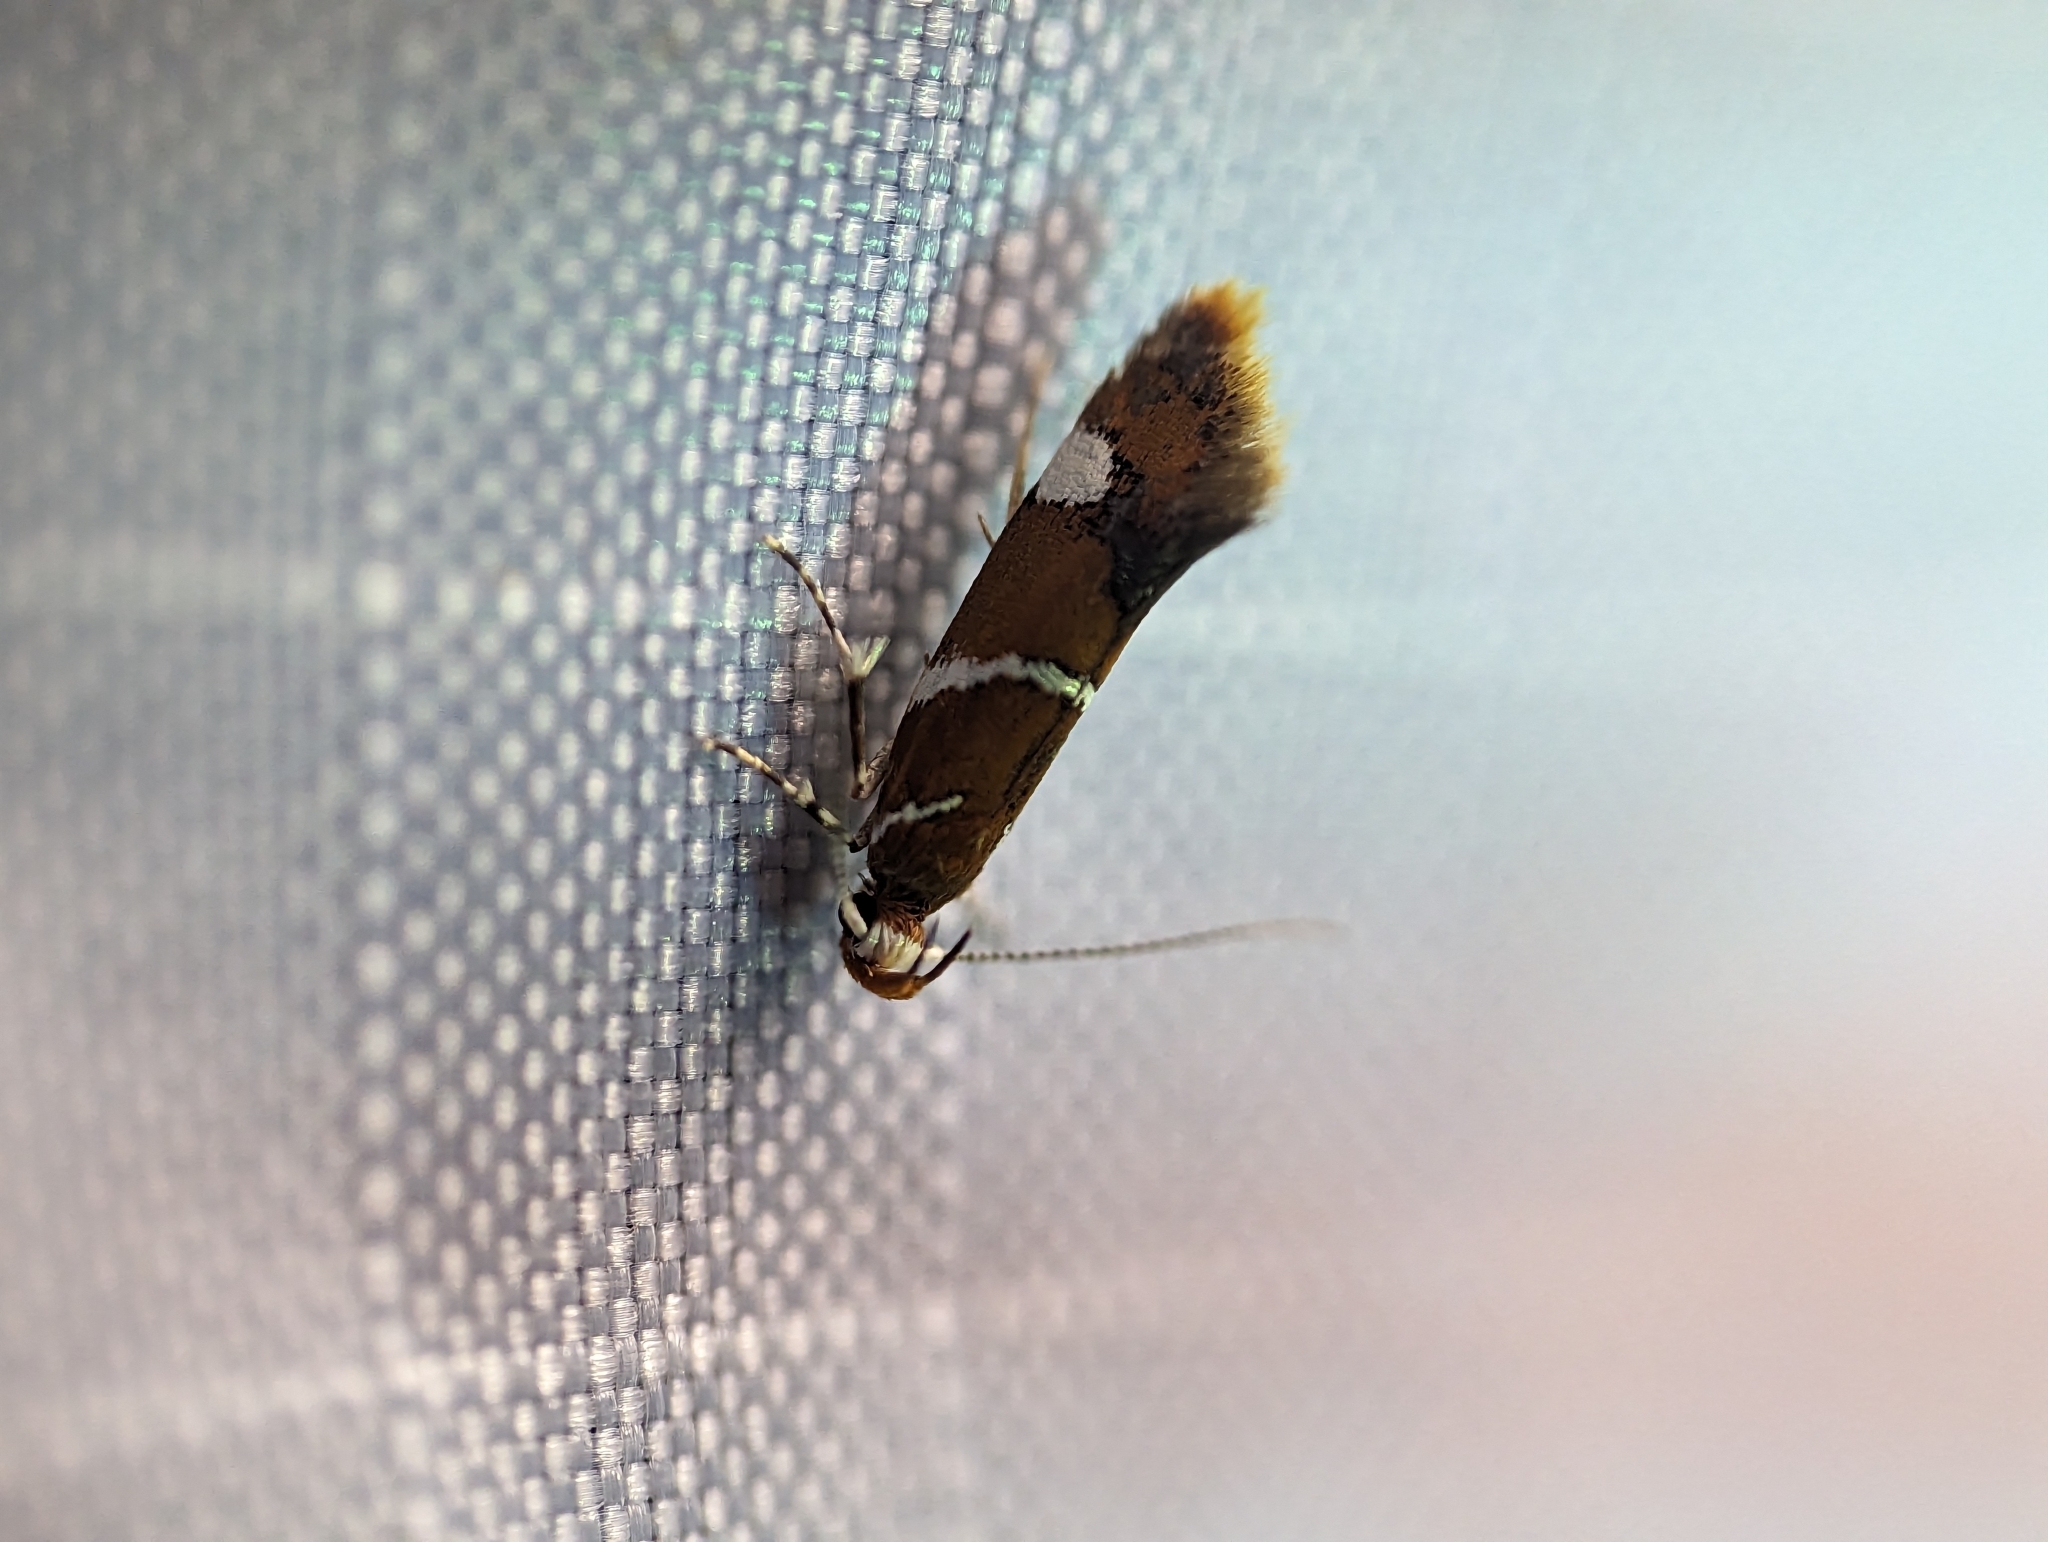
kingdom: Animalia
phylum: Arthropoda
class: Insecta
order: Lepidoptera
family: Oecophoridae
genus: Promalactis
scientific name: Promalactis suzukiella
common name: Moth
